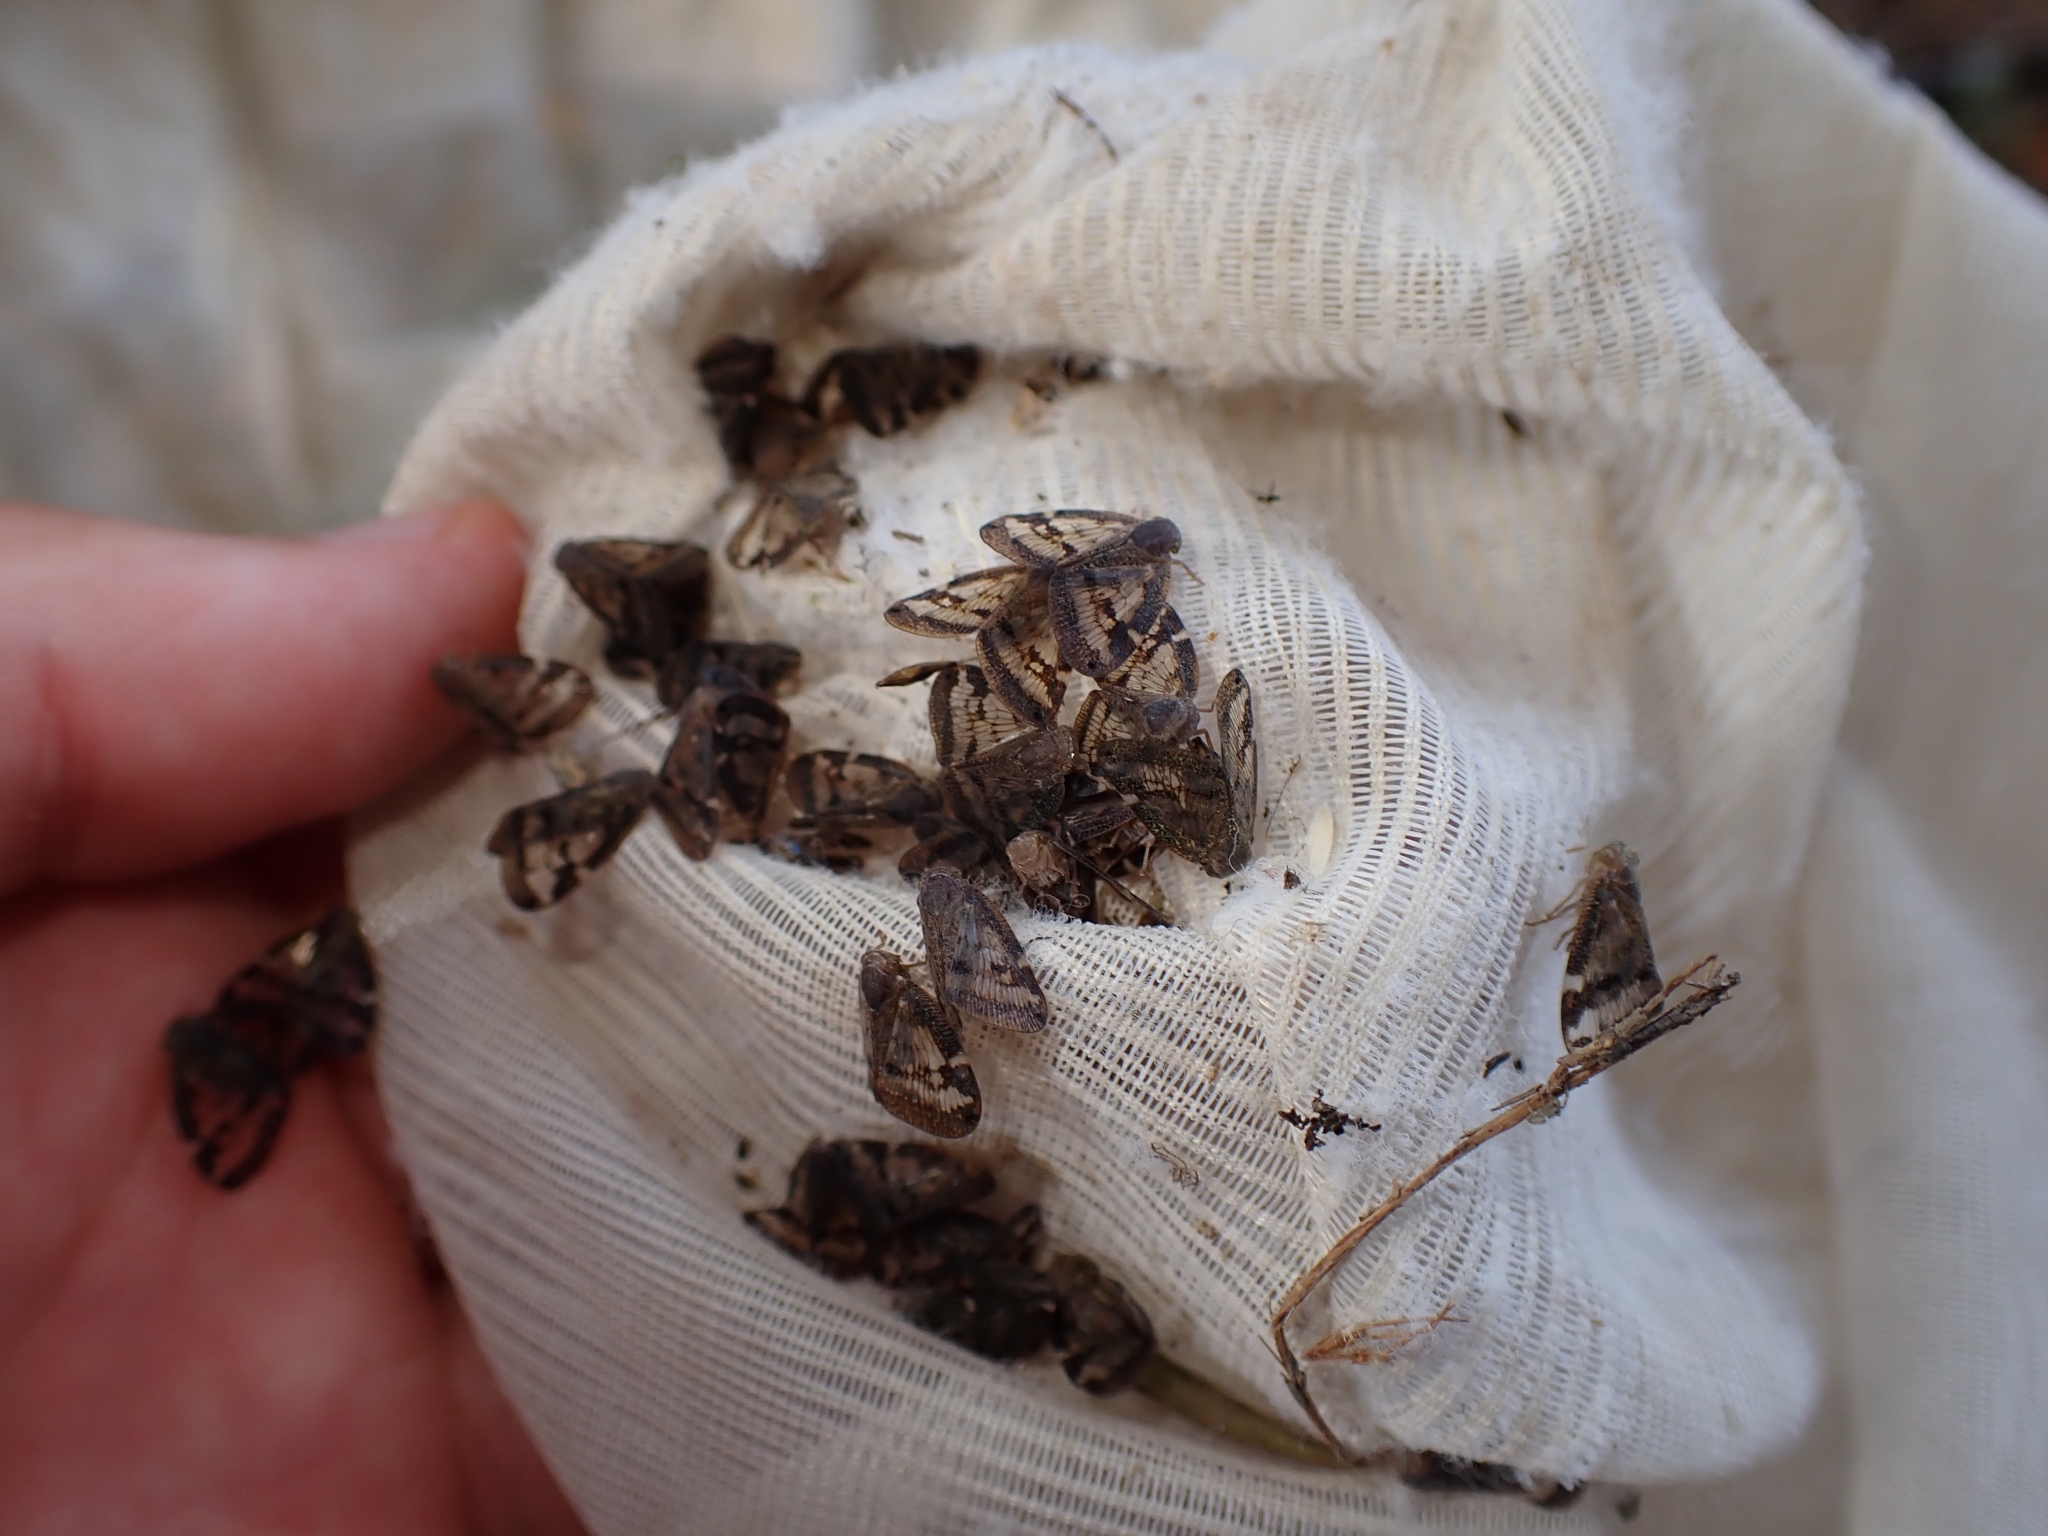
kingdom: Animalia
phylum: Arthropoda
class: Insecta
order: Hemiptera
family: Ricaniidae
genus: Scolypopa
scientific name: Scolypopa australis
